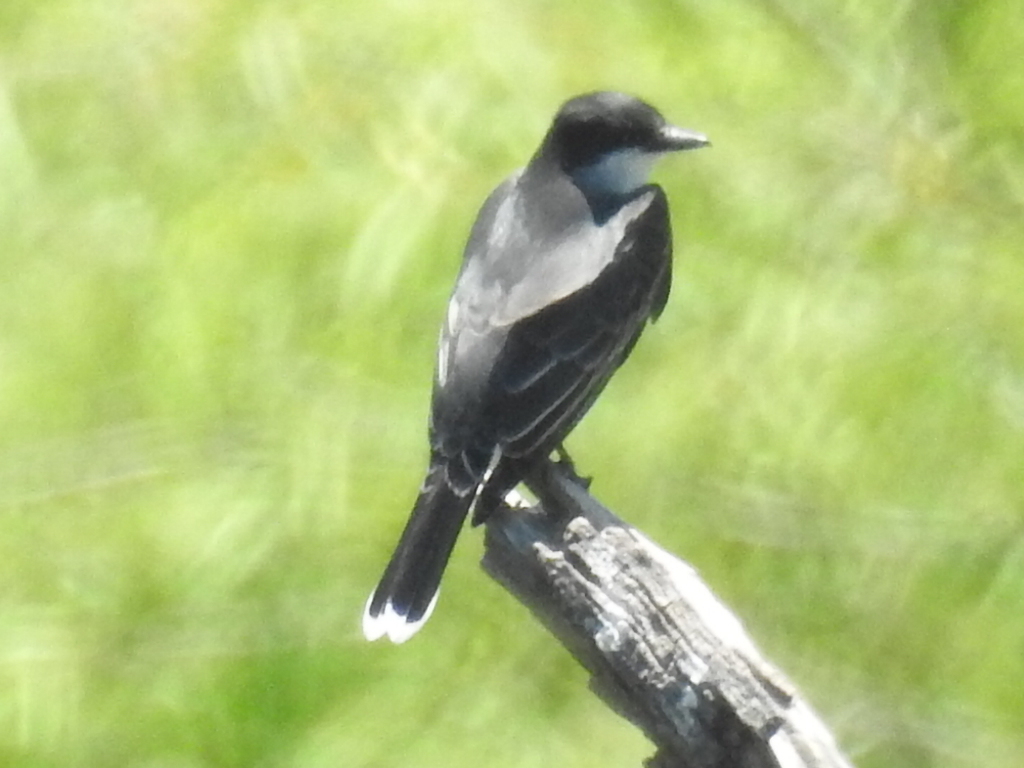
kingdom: Animalia
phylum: Chordata
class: Aves
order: Passeriformes
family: Tyrannidae
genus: Tyrannus
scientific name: Tyrannus tyrannus
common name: Eastern kingbird
